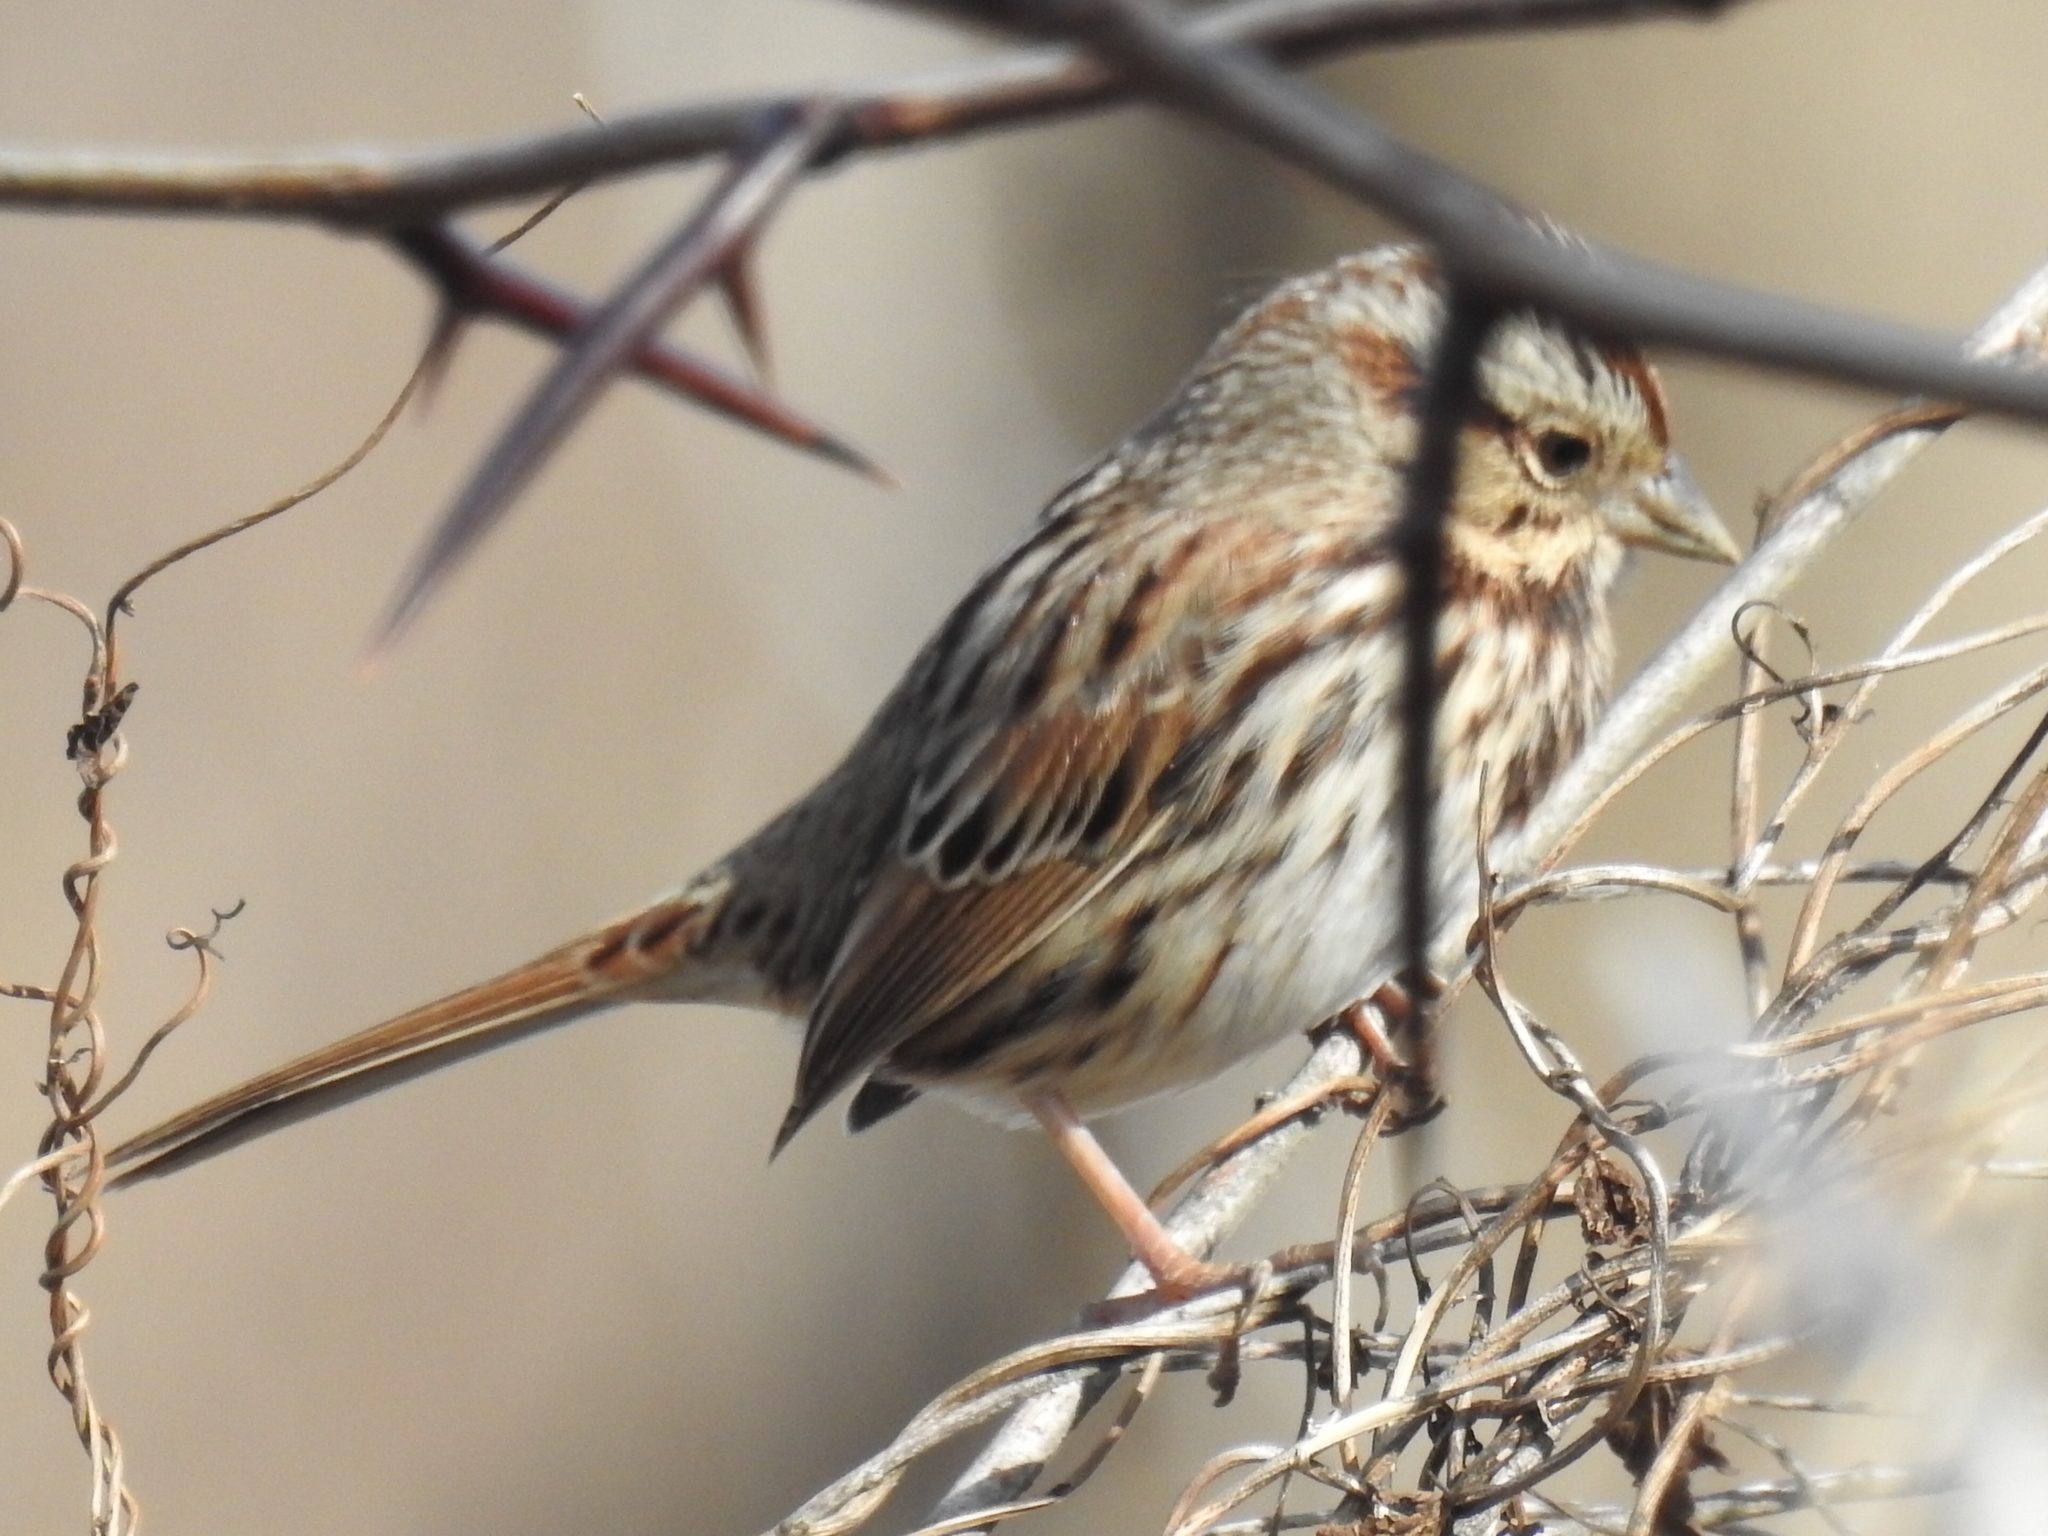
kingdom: Animalia
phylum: Chordata
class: Aves
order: Passeriformes
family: Passerellidae
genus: Melospiza
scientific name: Melospiza melodia
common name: Song sparrow
